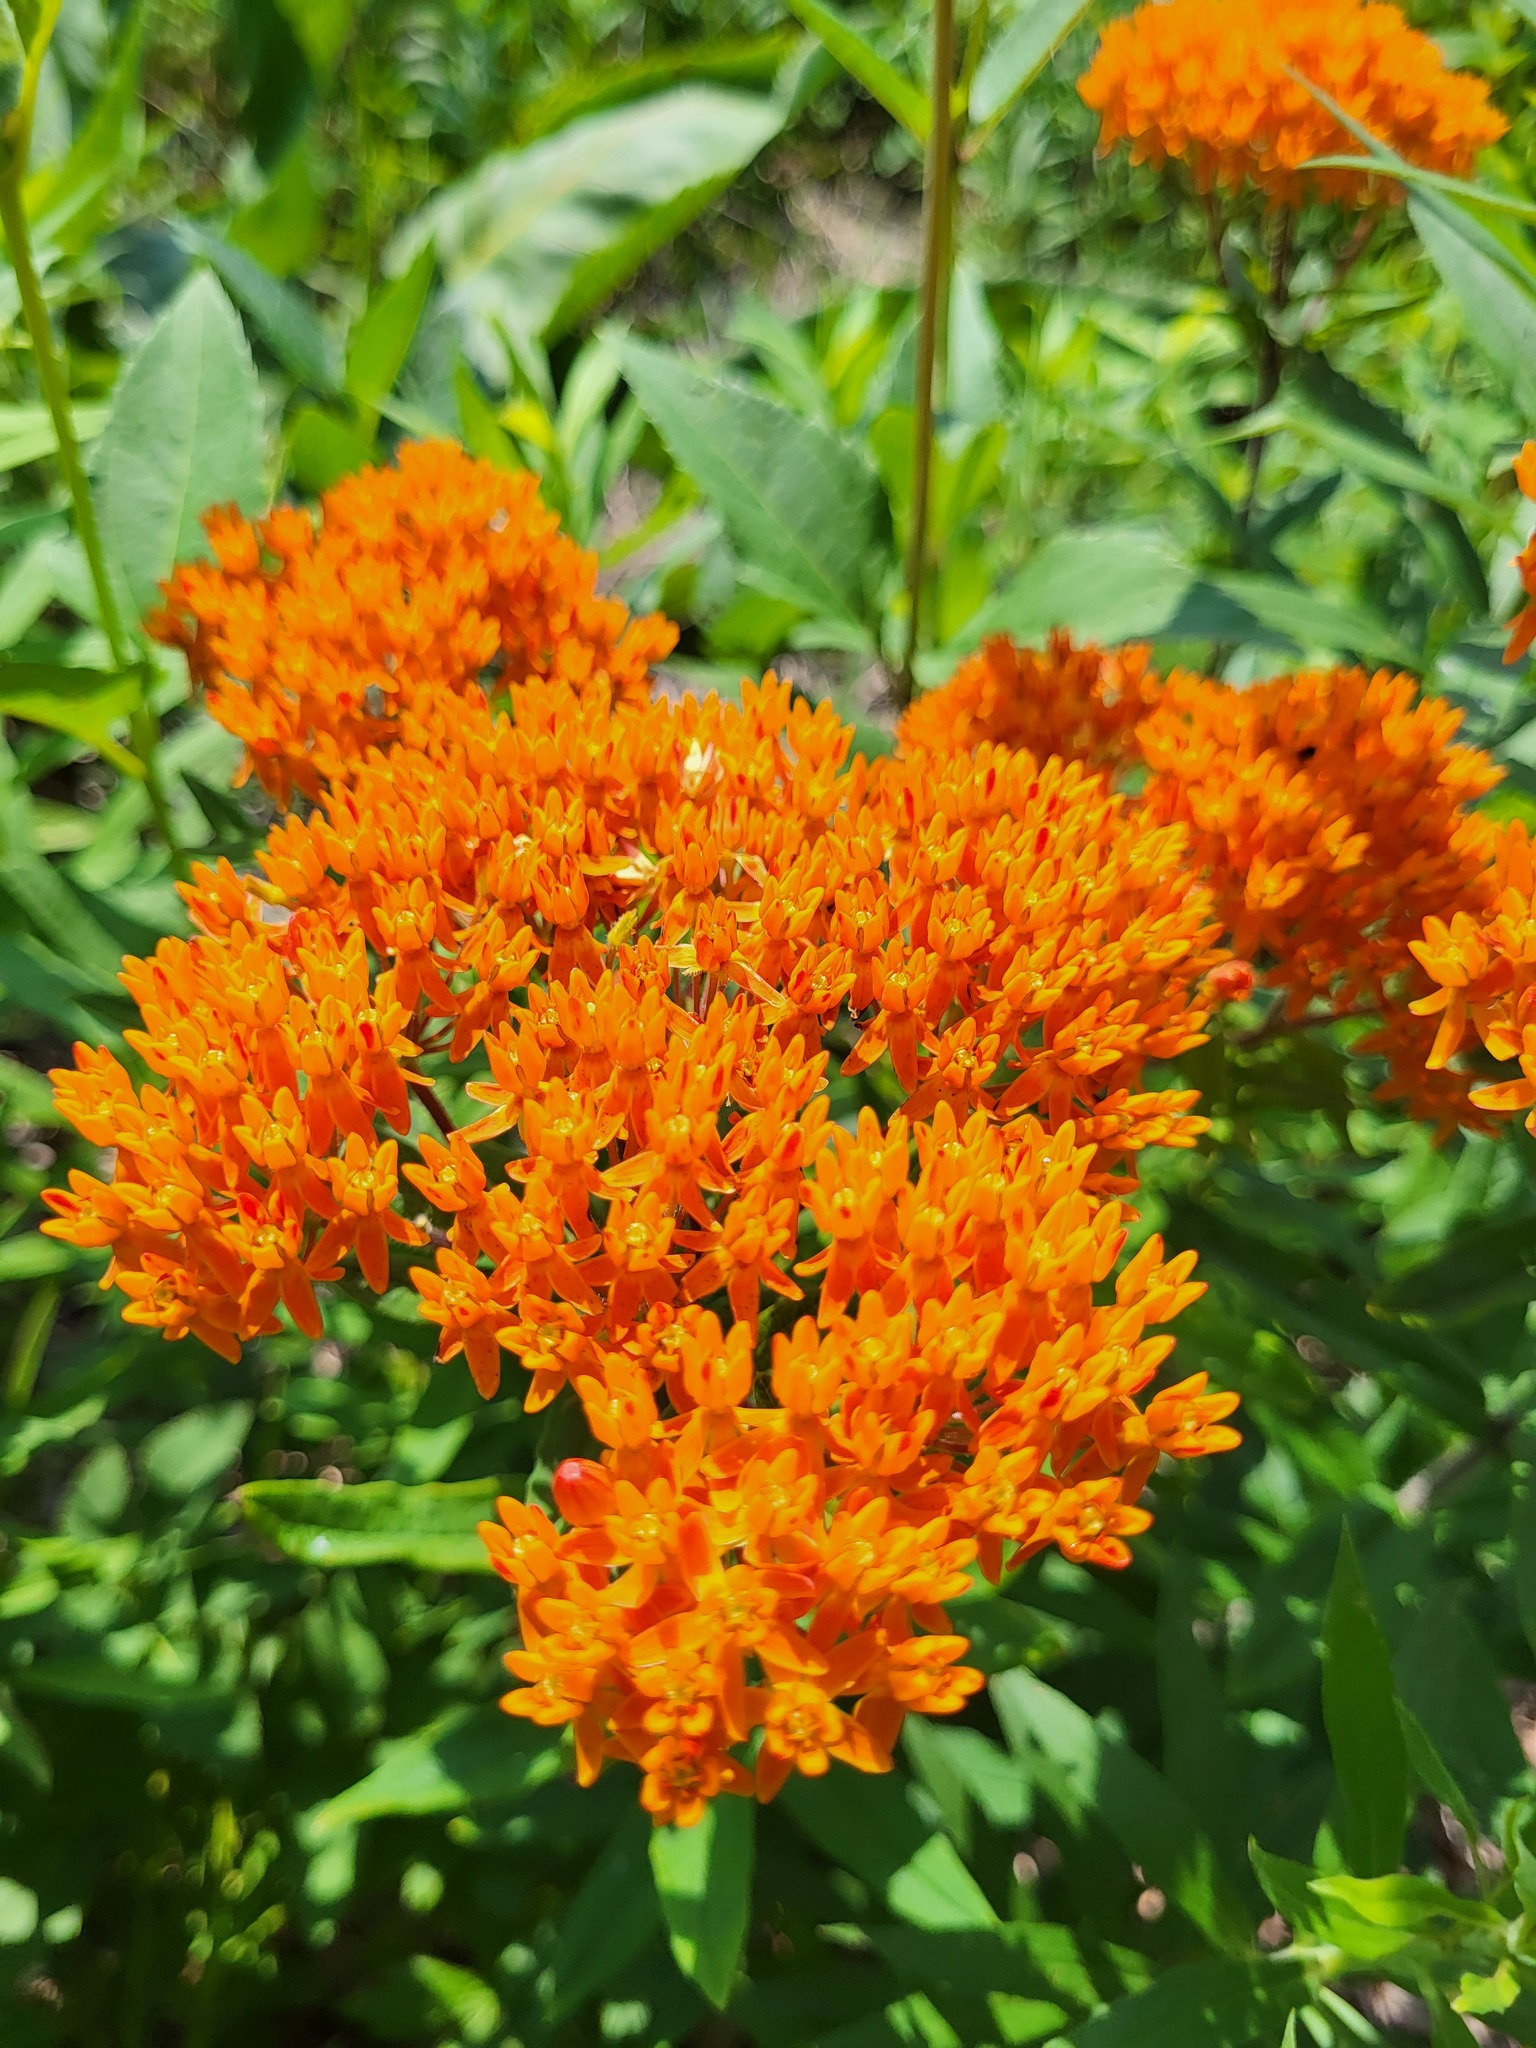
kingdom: Plantae
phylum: Tracheophyta
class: Magnoliopsida
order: Gentianales
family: Apocynaceae
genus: Asclepias
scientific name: Asclepias tuberosa
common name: Butterfly milkweed
